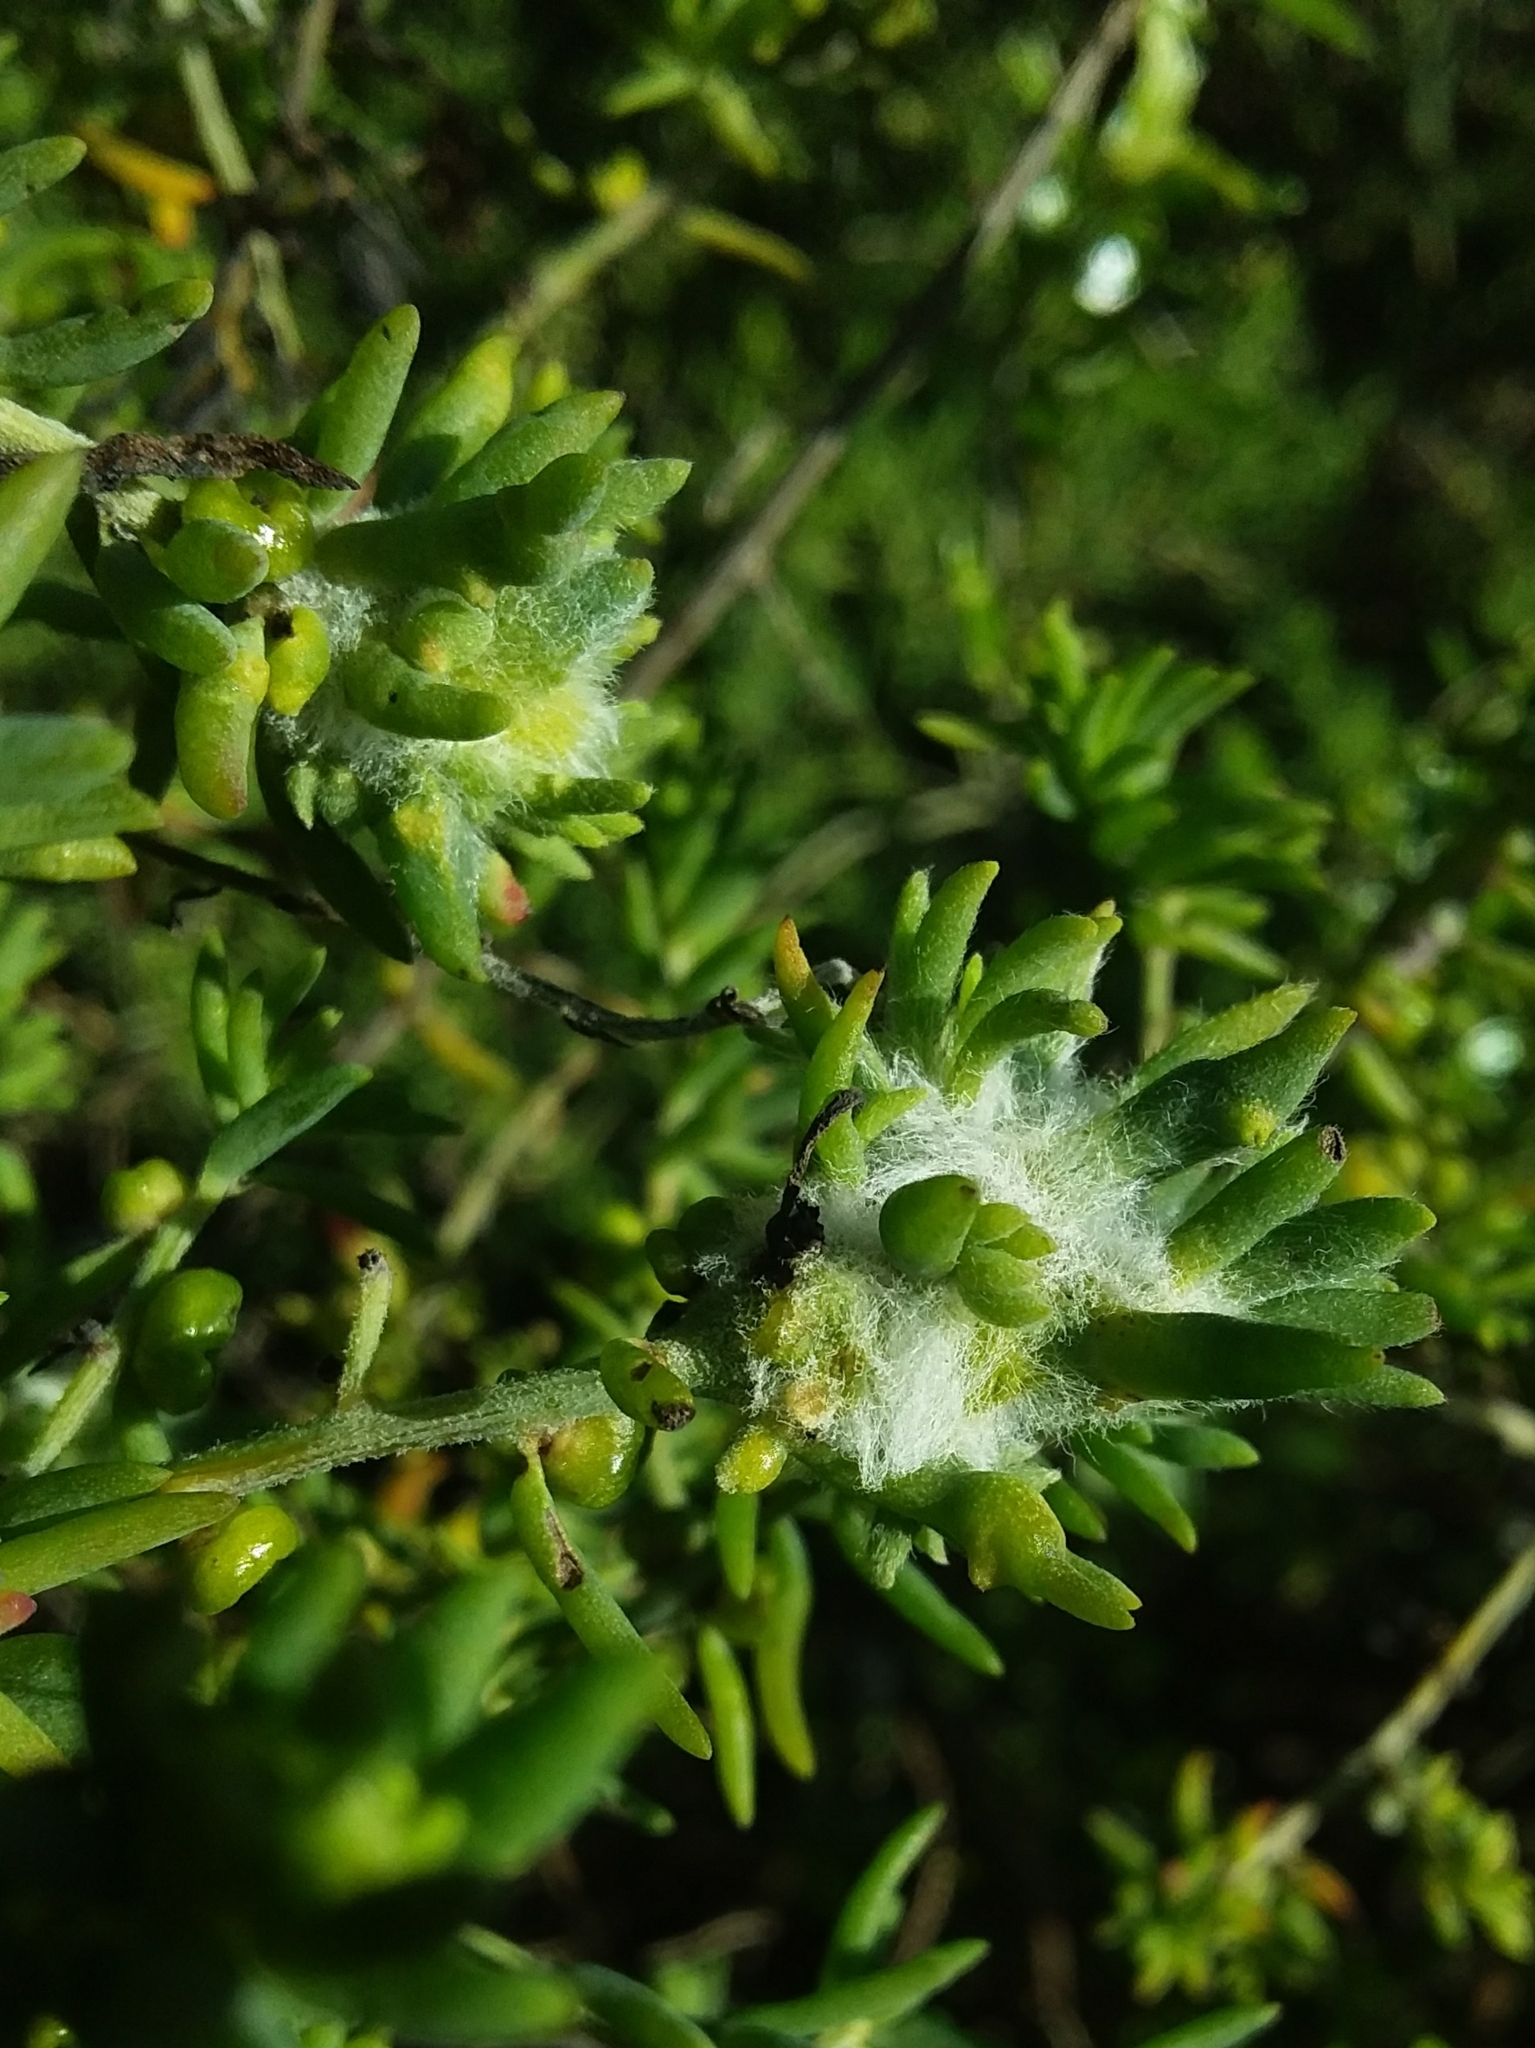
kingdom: Animalia
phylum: Arthropoda
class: Insecta
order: Diptera
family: Cecidomyiidae
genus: Asphondylia
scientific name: Asphondylia tonsura
